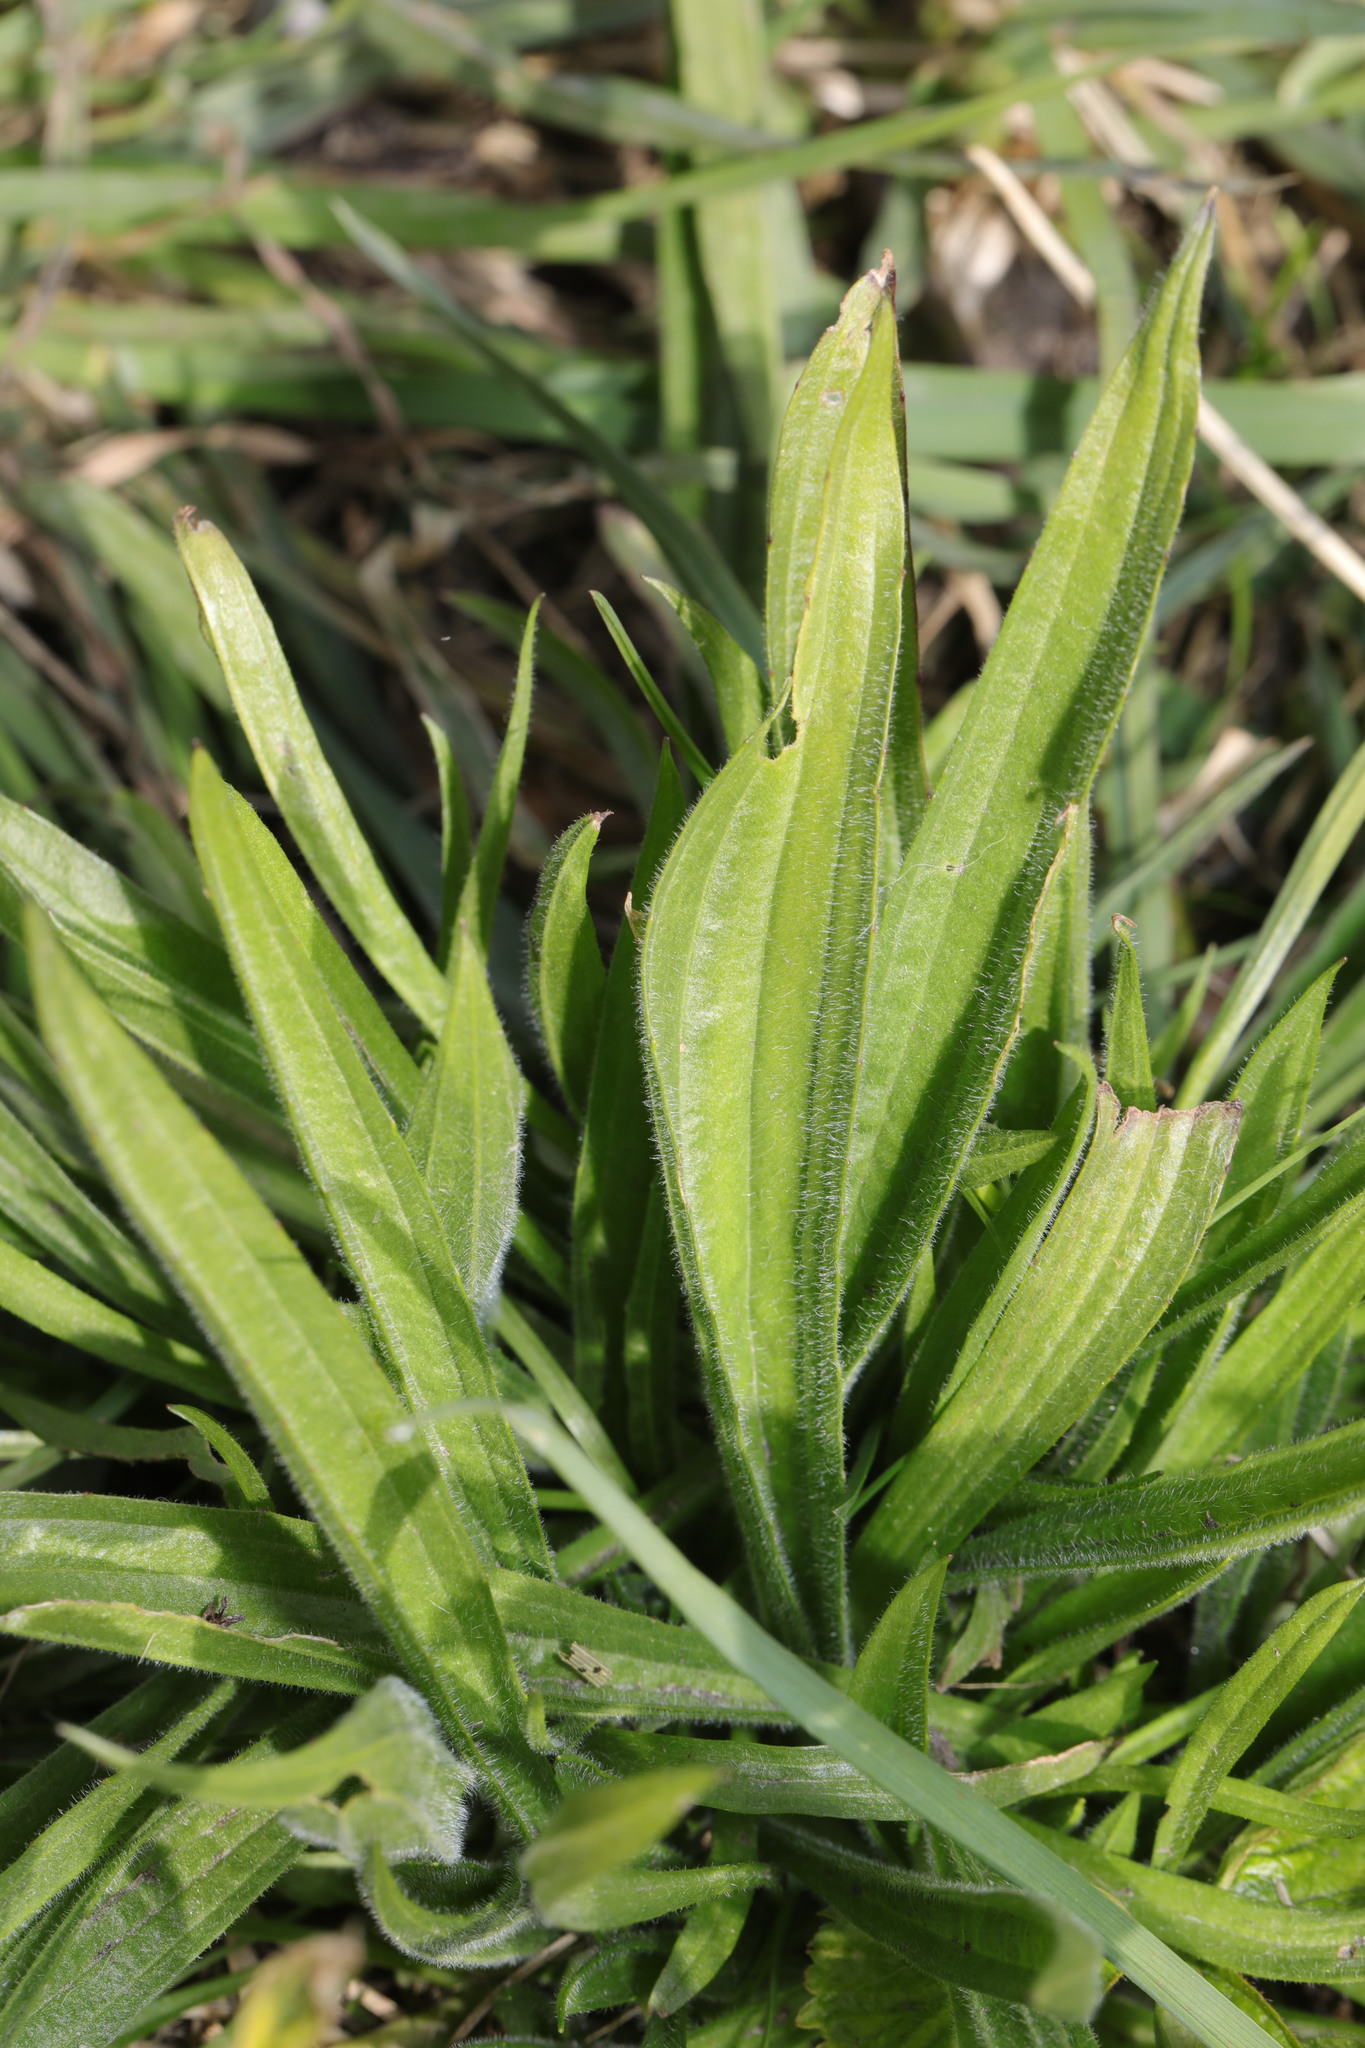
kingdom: Plantae
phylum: Tracheophyta
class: Magnoliopsida
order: Lamiales
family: Plantaginaceae
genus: Plantago
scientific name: Plantago lanceolata
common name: Ribwort plantain
